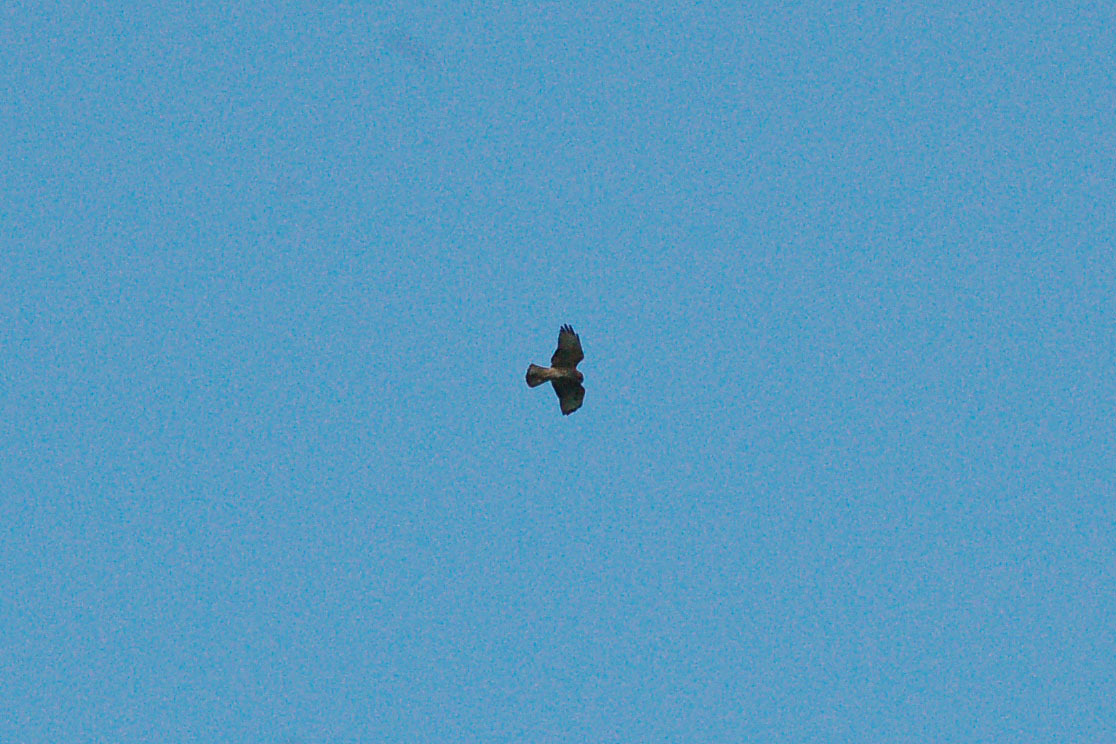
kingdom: Animalia
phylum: Chordata
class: Aves
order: Accipitriformes
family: Accipitridae
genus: Buteo
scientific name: Buteo platypterus
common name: Broad-winged hawk
